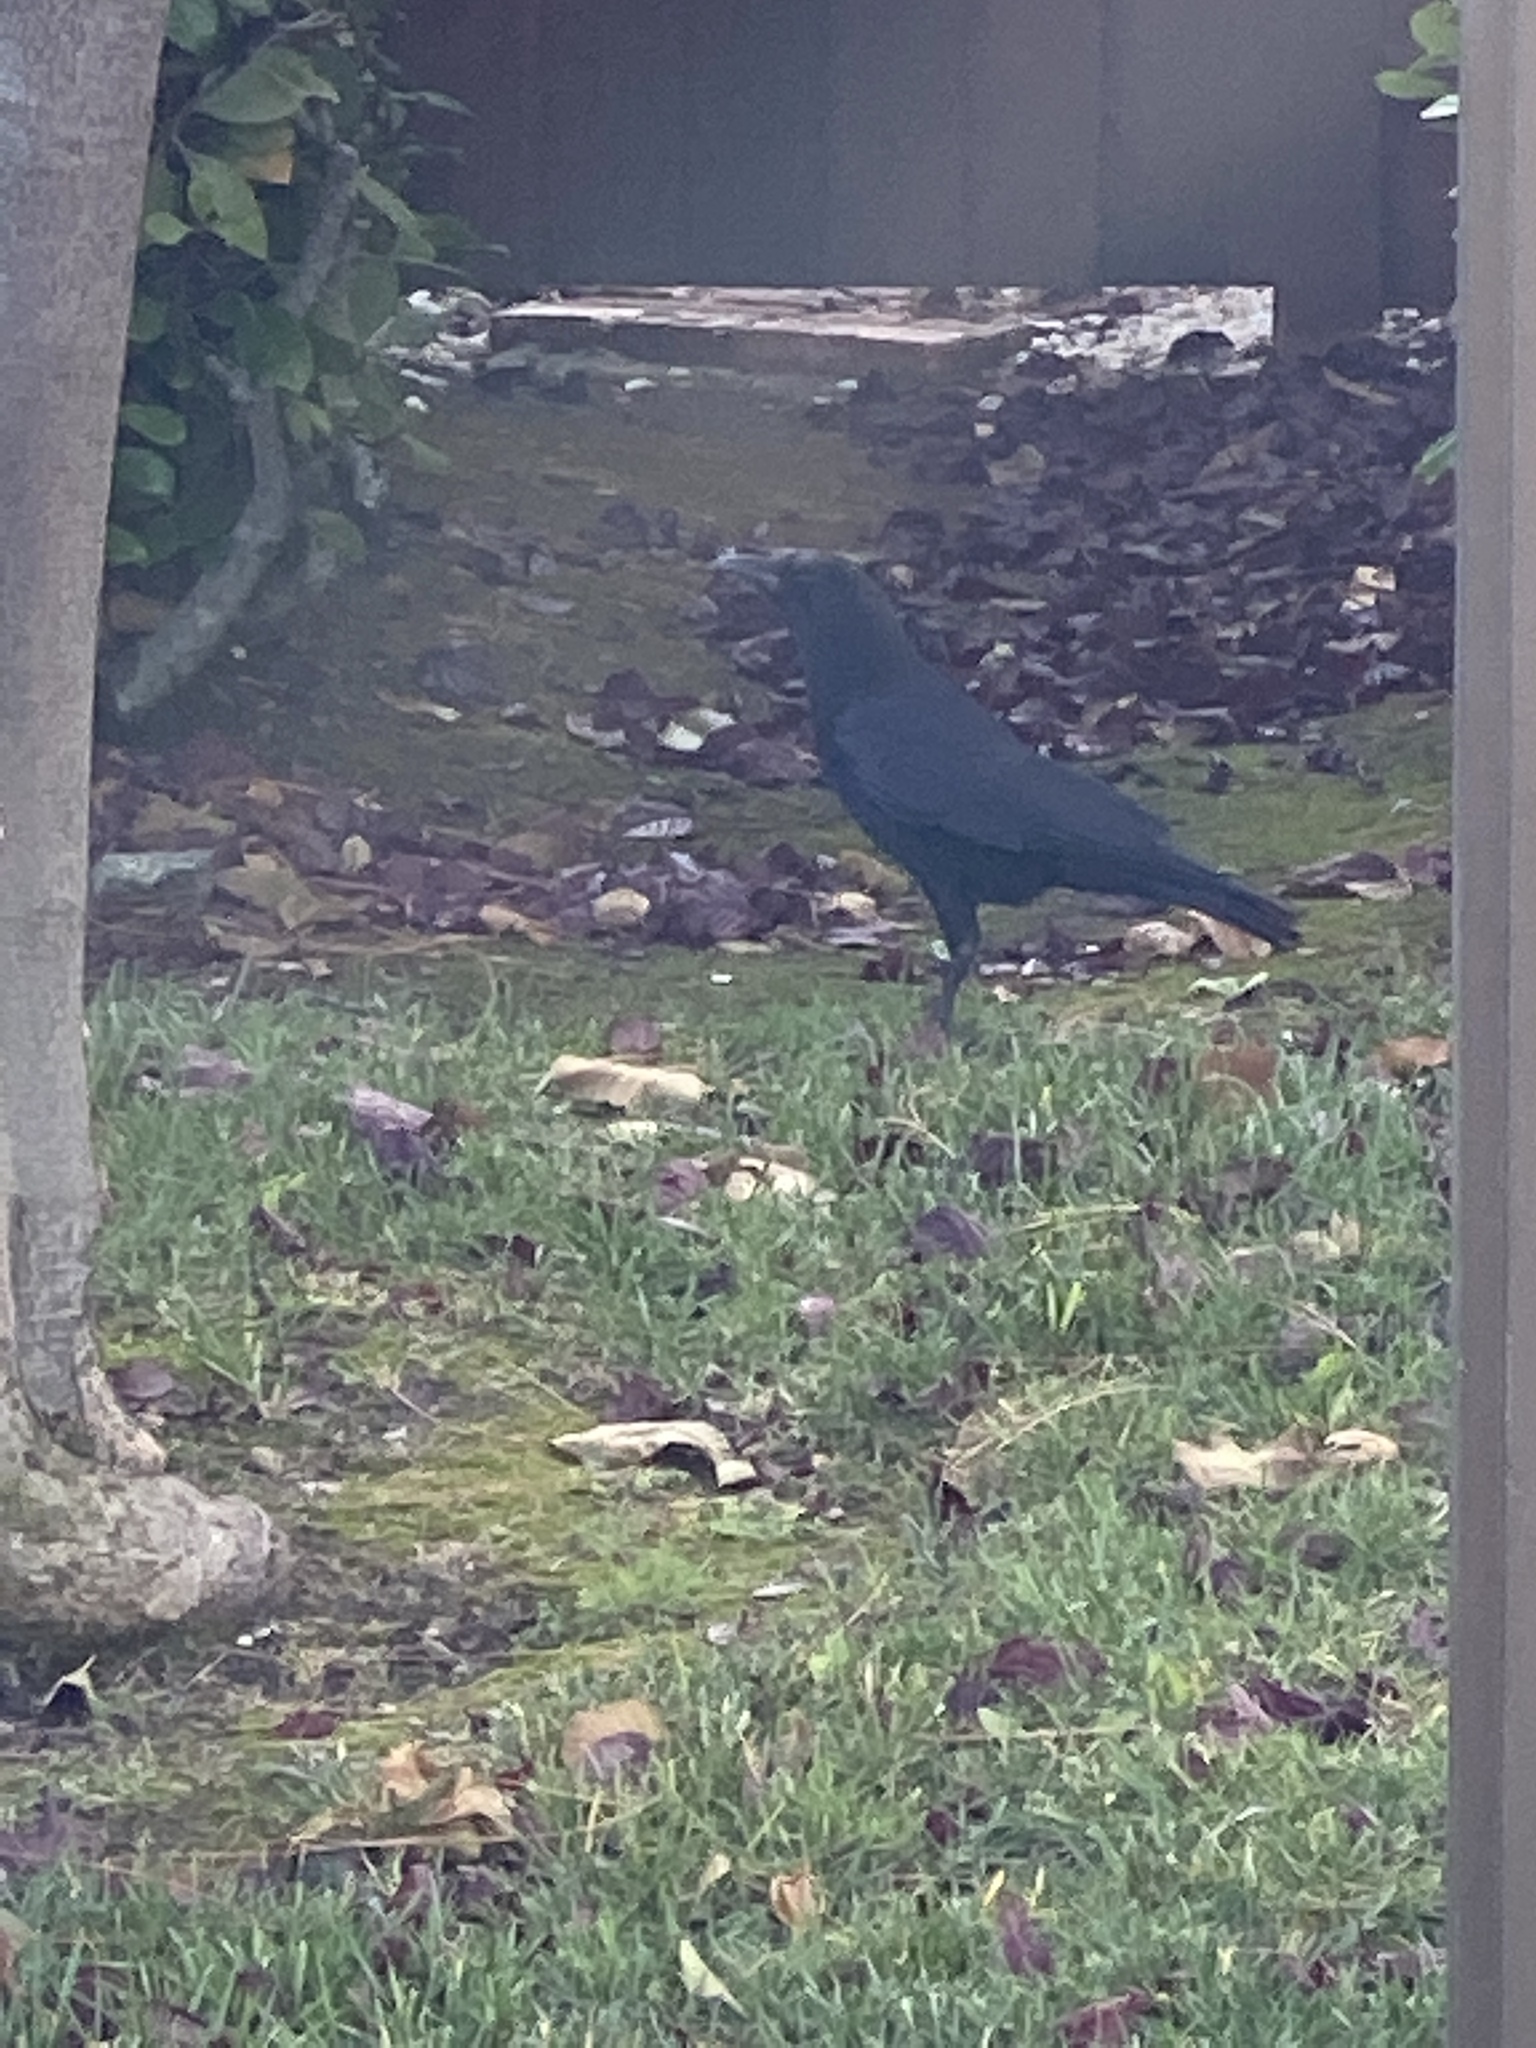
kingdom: Animalia
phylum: Chordata
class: Aves
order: Passeriformes
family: Corvidae
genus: Corvus
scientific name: Corvus brachyrhynchos
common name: American crow
